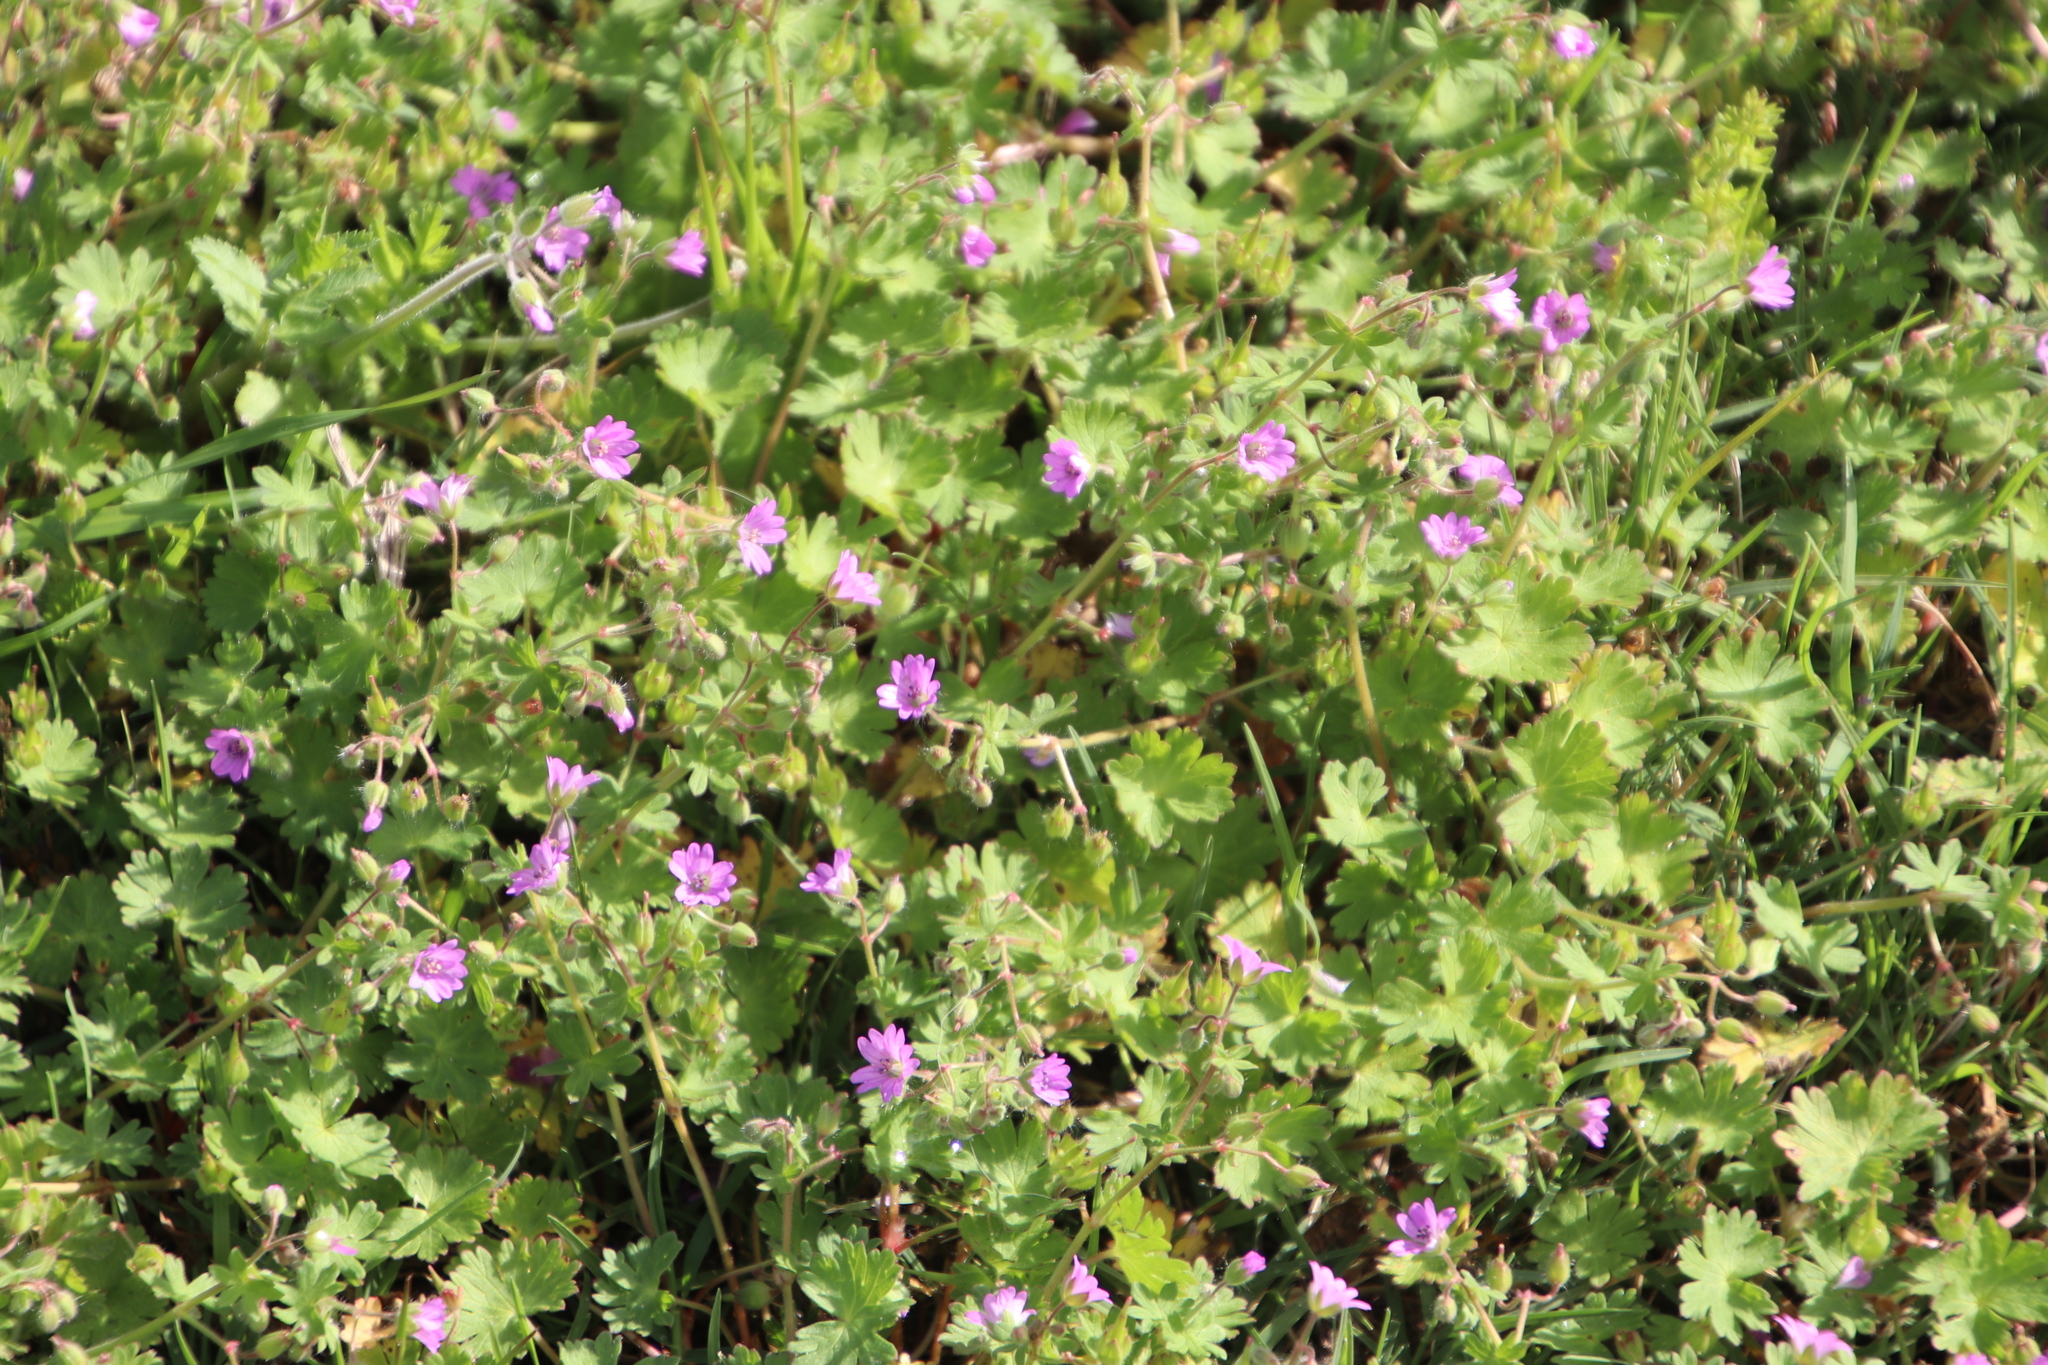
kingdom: Plantae
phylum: Tracheophyta
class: Magnoliopsida
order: Geraniales
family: Geraniaceae
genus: Geranium
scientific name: Geranium molle
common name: Dove's-foot crane's-bill
